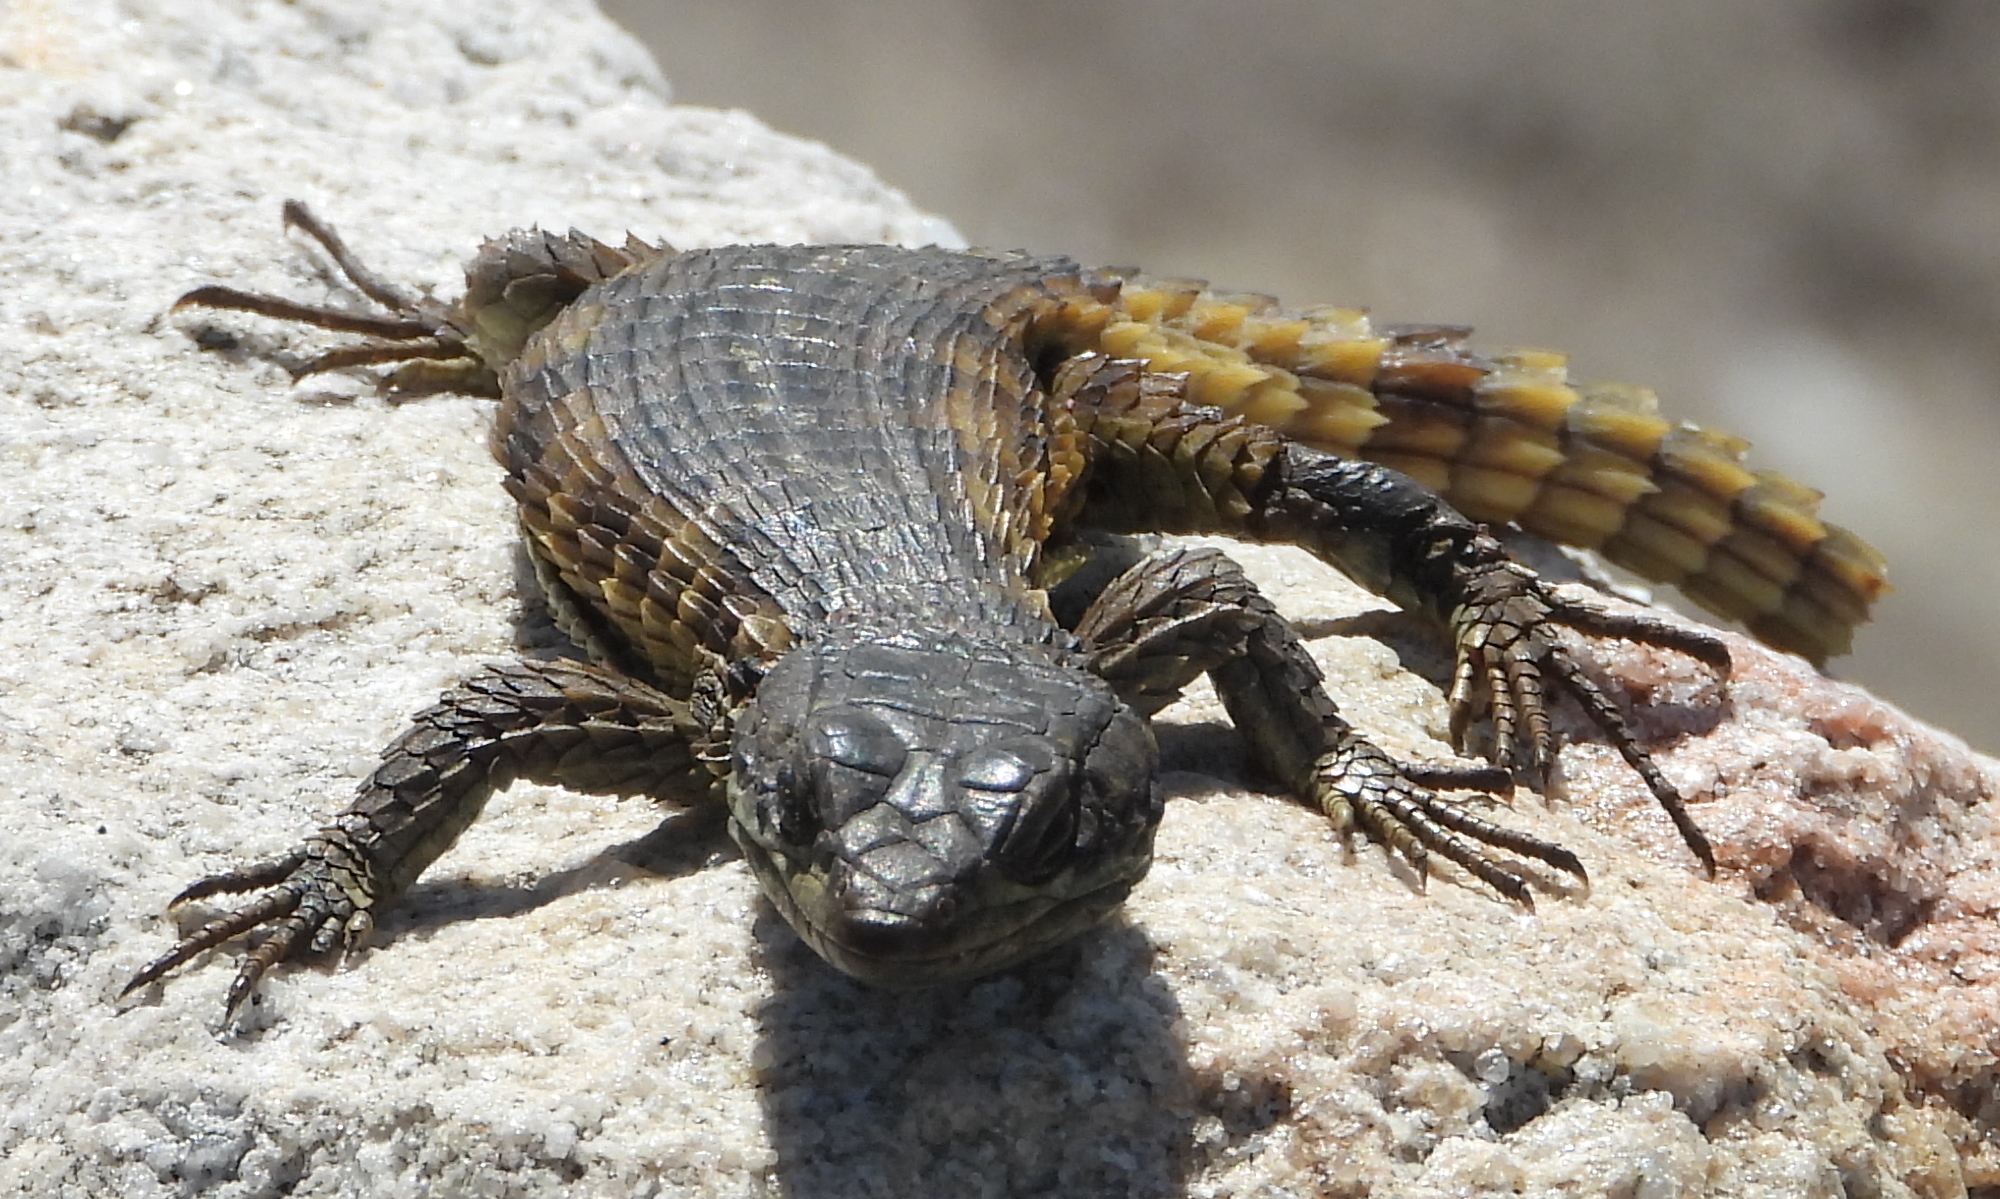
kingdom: Animalia
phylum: Chordata
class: Squamata
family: Cordylidae
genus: Cordylus
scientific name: Cordylus cordylus
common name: Cape girdled lizard
